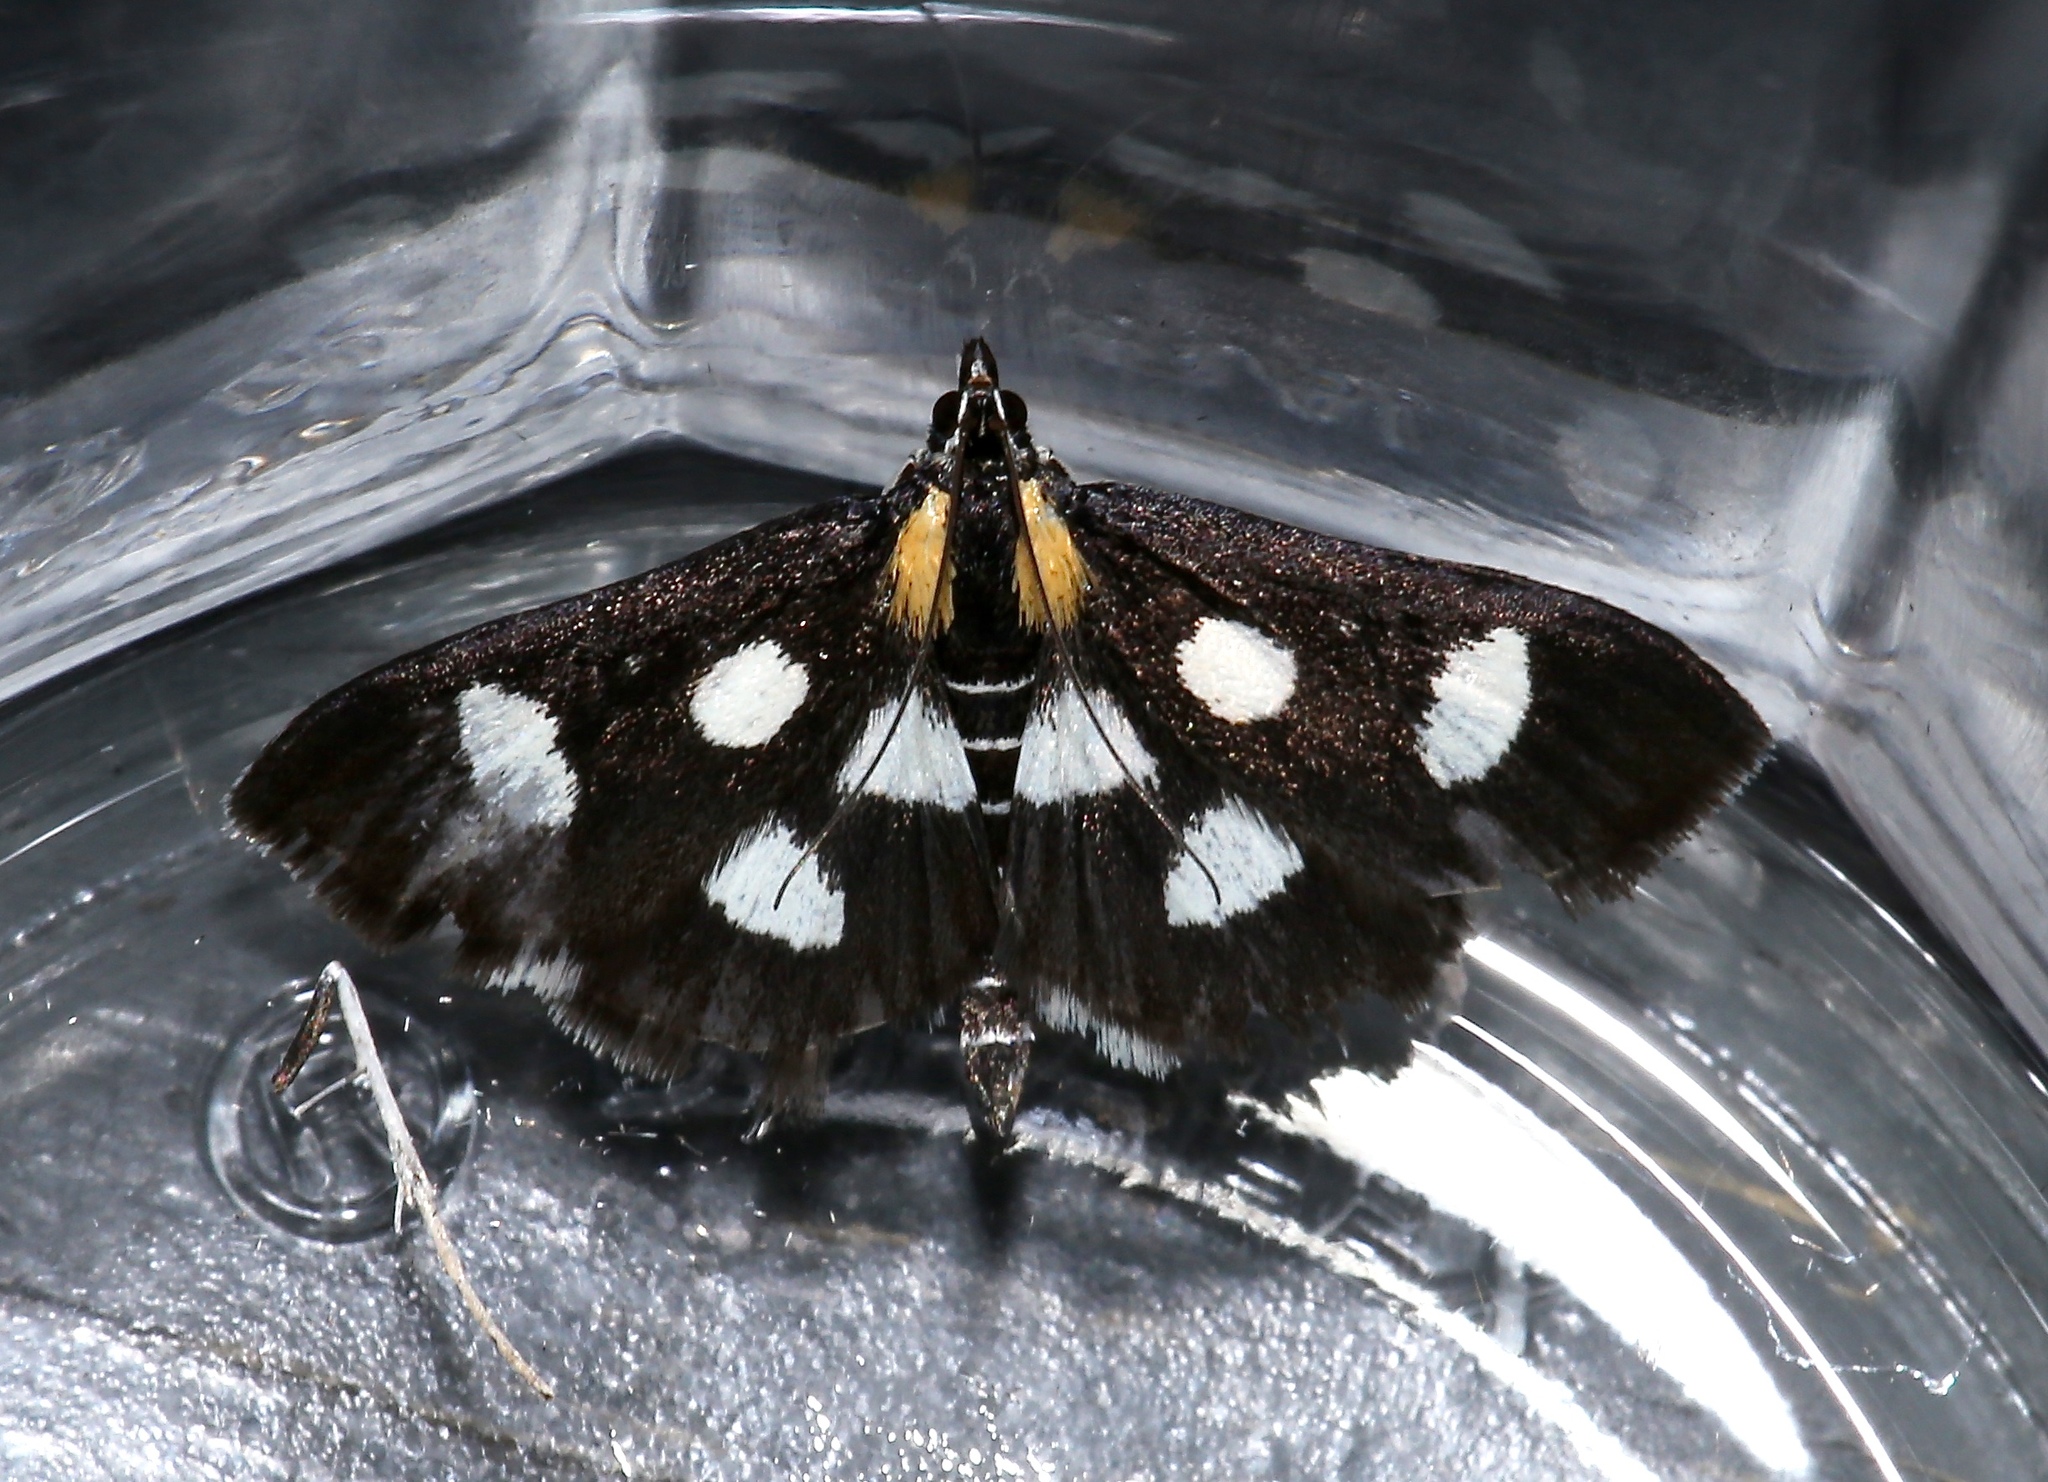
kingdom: Animalia
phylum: Arthropoda
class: Insecta
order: Lepidoptera
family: Crambidae
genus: Anania
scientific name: Anania funebris
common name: White-spotted sable moth
